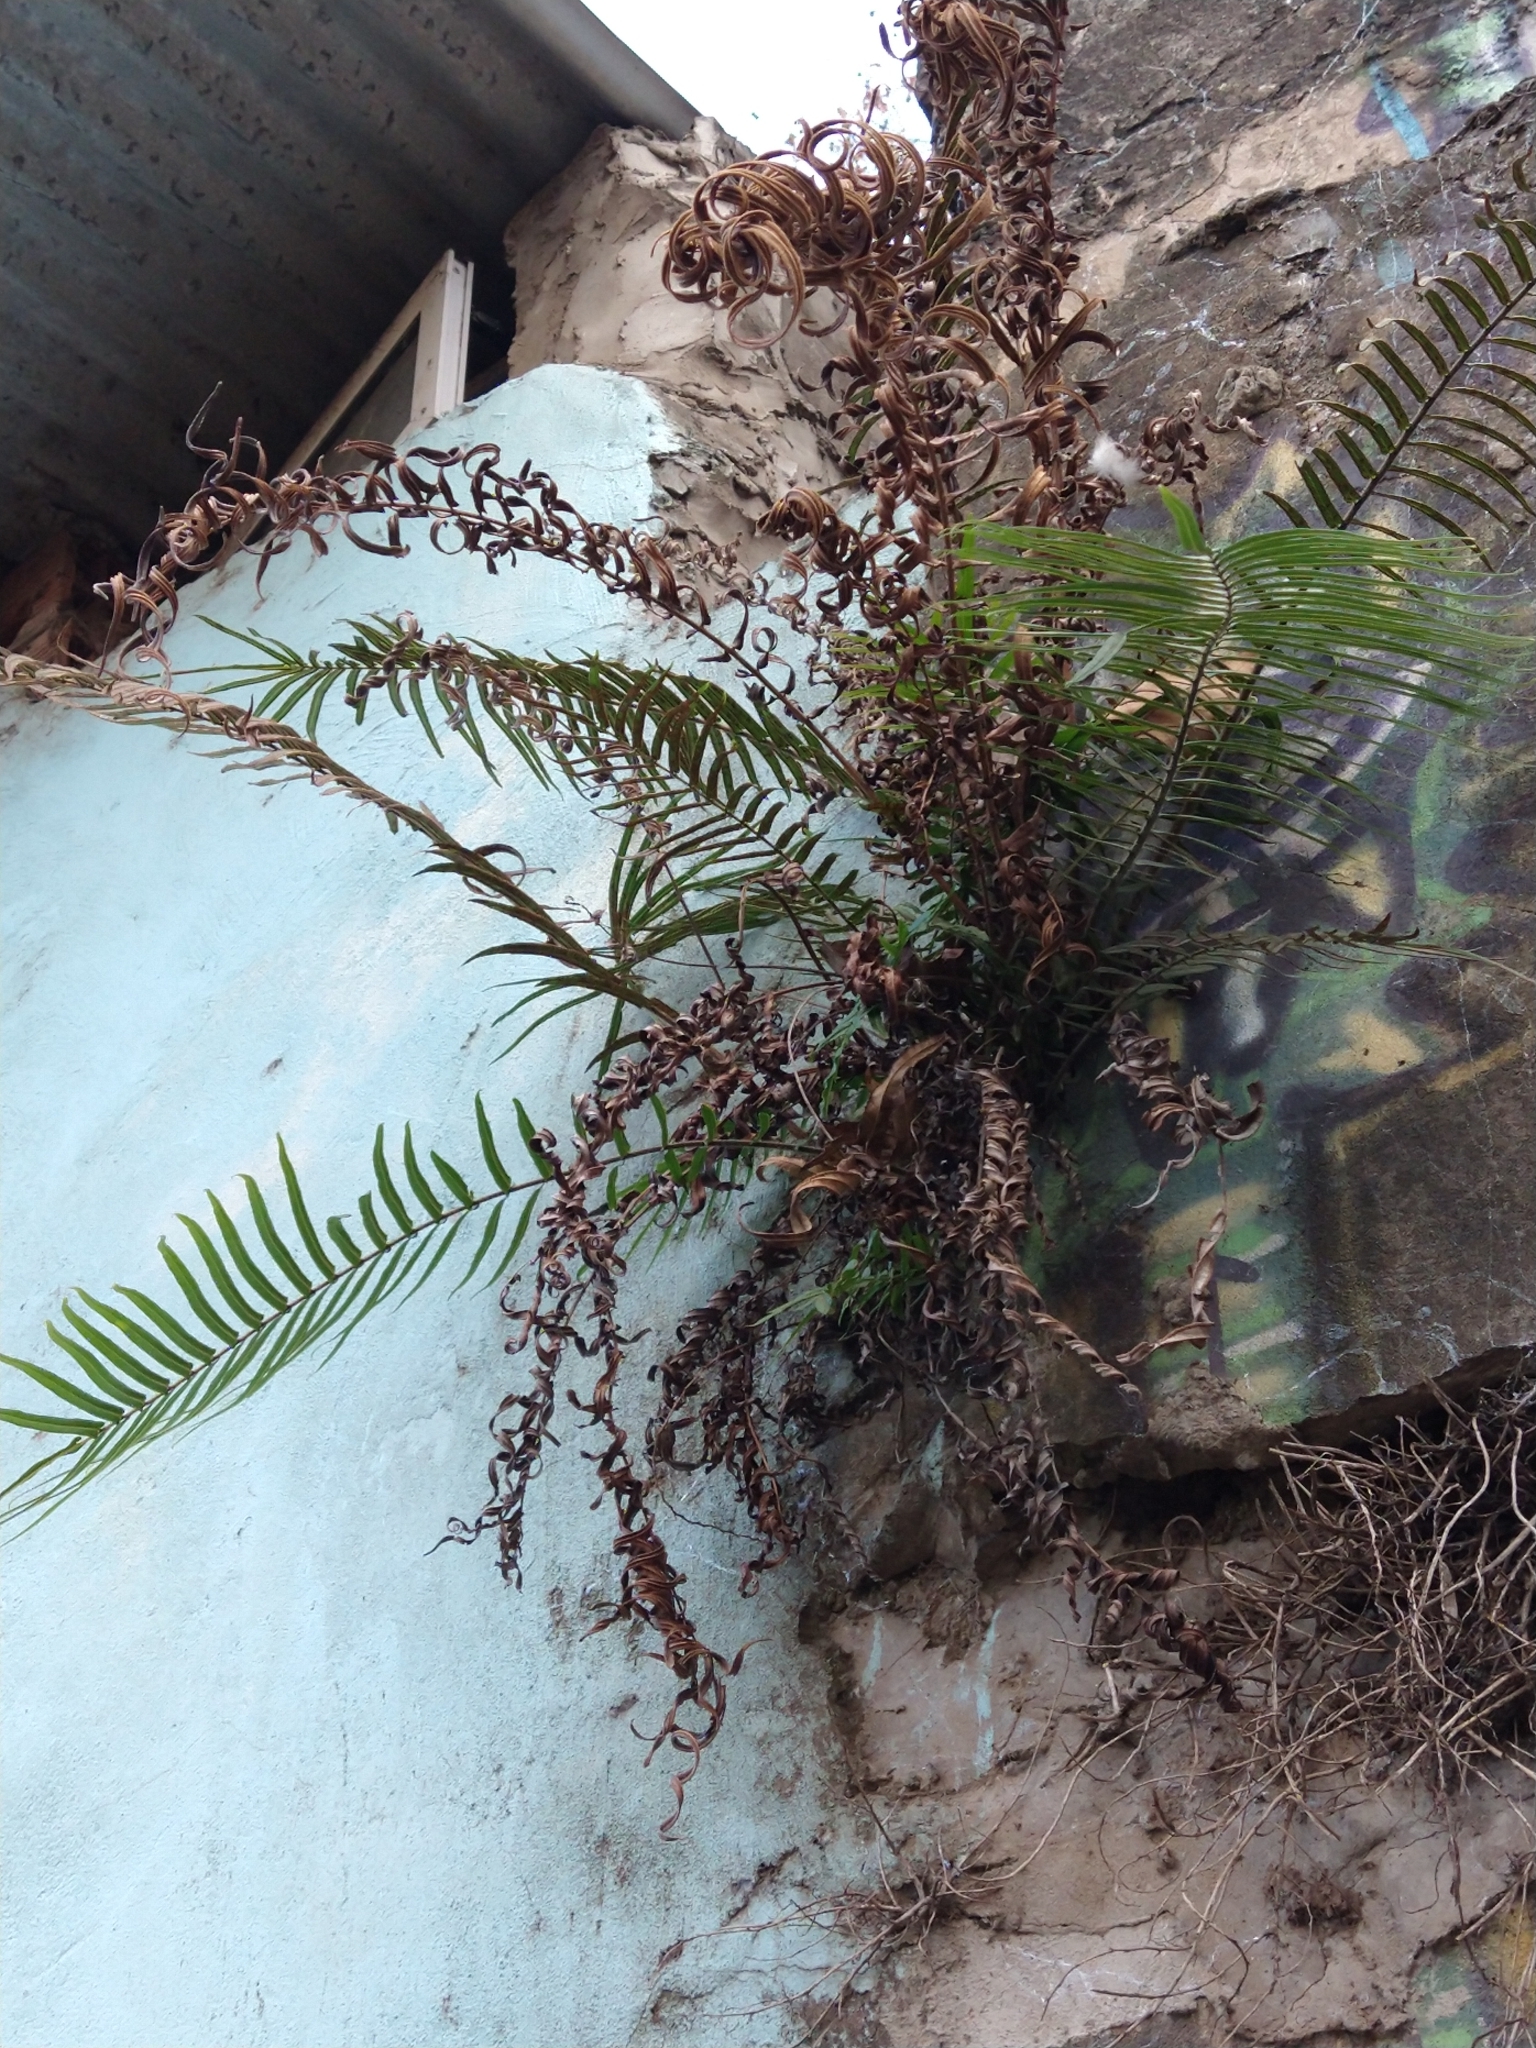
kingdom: Plantae
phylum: Tracheophyta
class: Polypodiopsida
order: Polypodiales
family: Pteridaceae
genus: Pteris
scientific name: Pteris vittata
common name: Ladder brake
